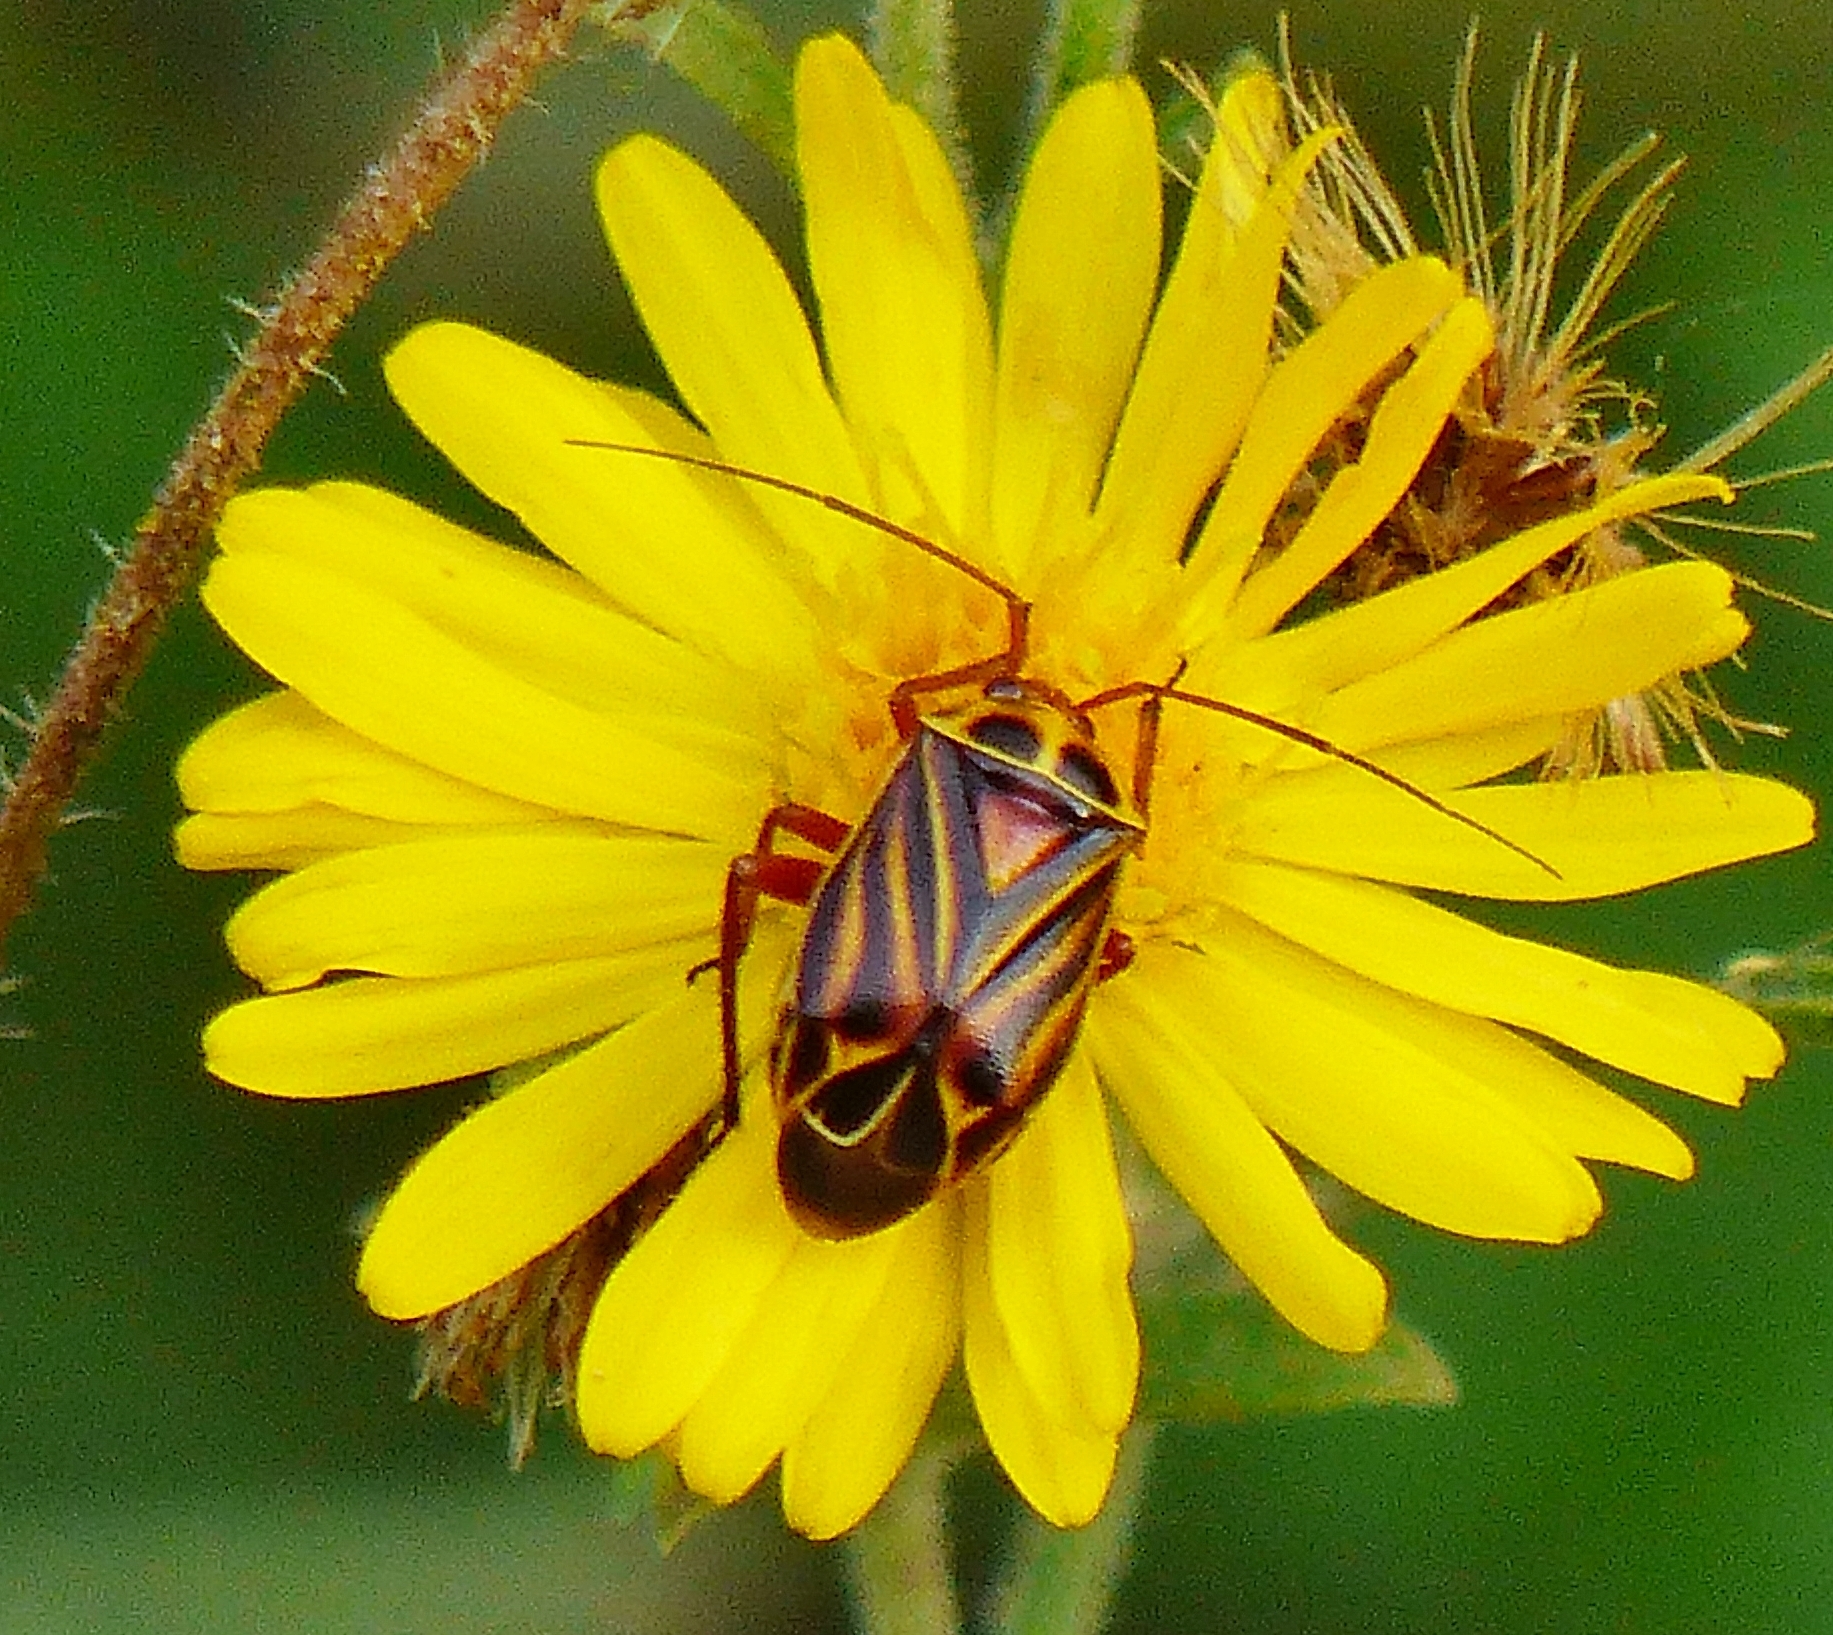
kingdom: Animalia
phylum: Arthropoda
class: Insecta
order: Hemiptera
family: Miridae
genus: Calocoris
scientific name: Calocoris barberi
